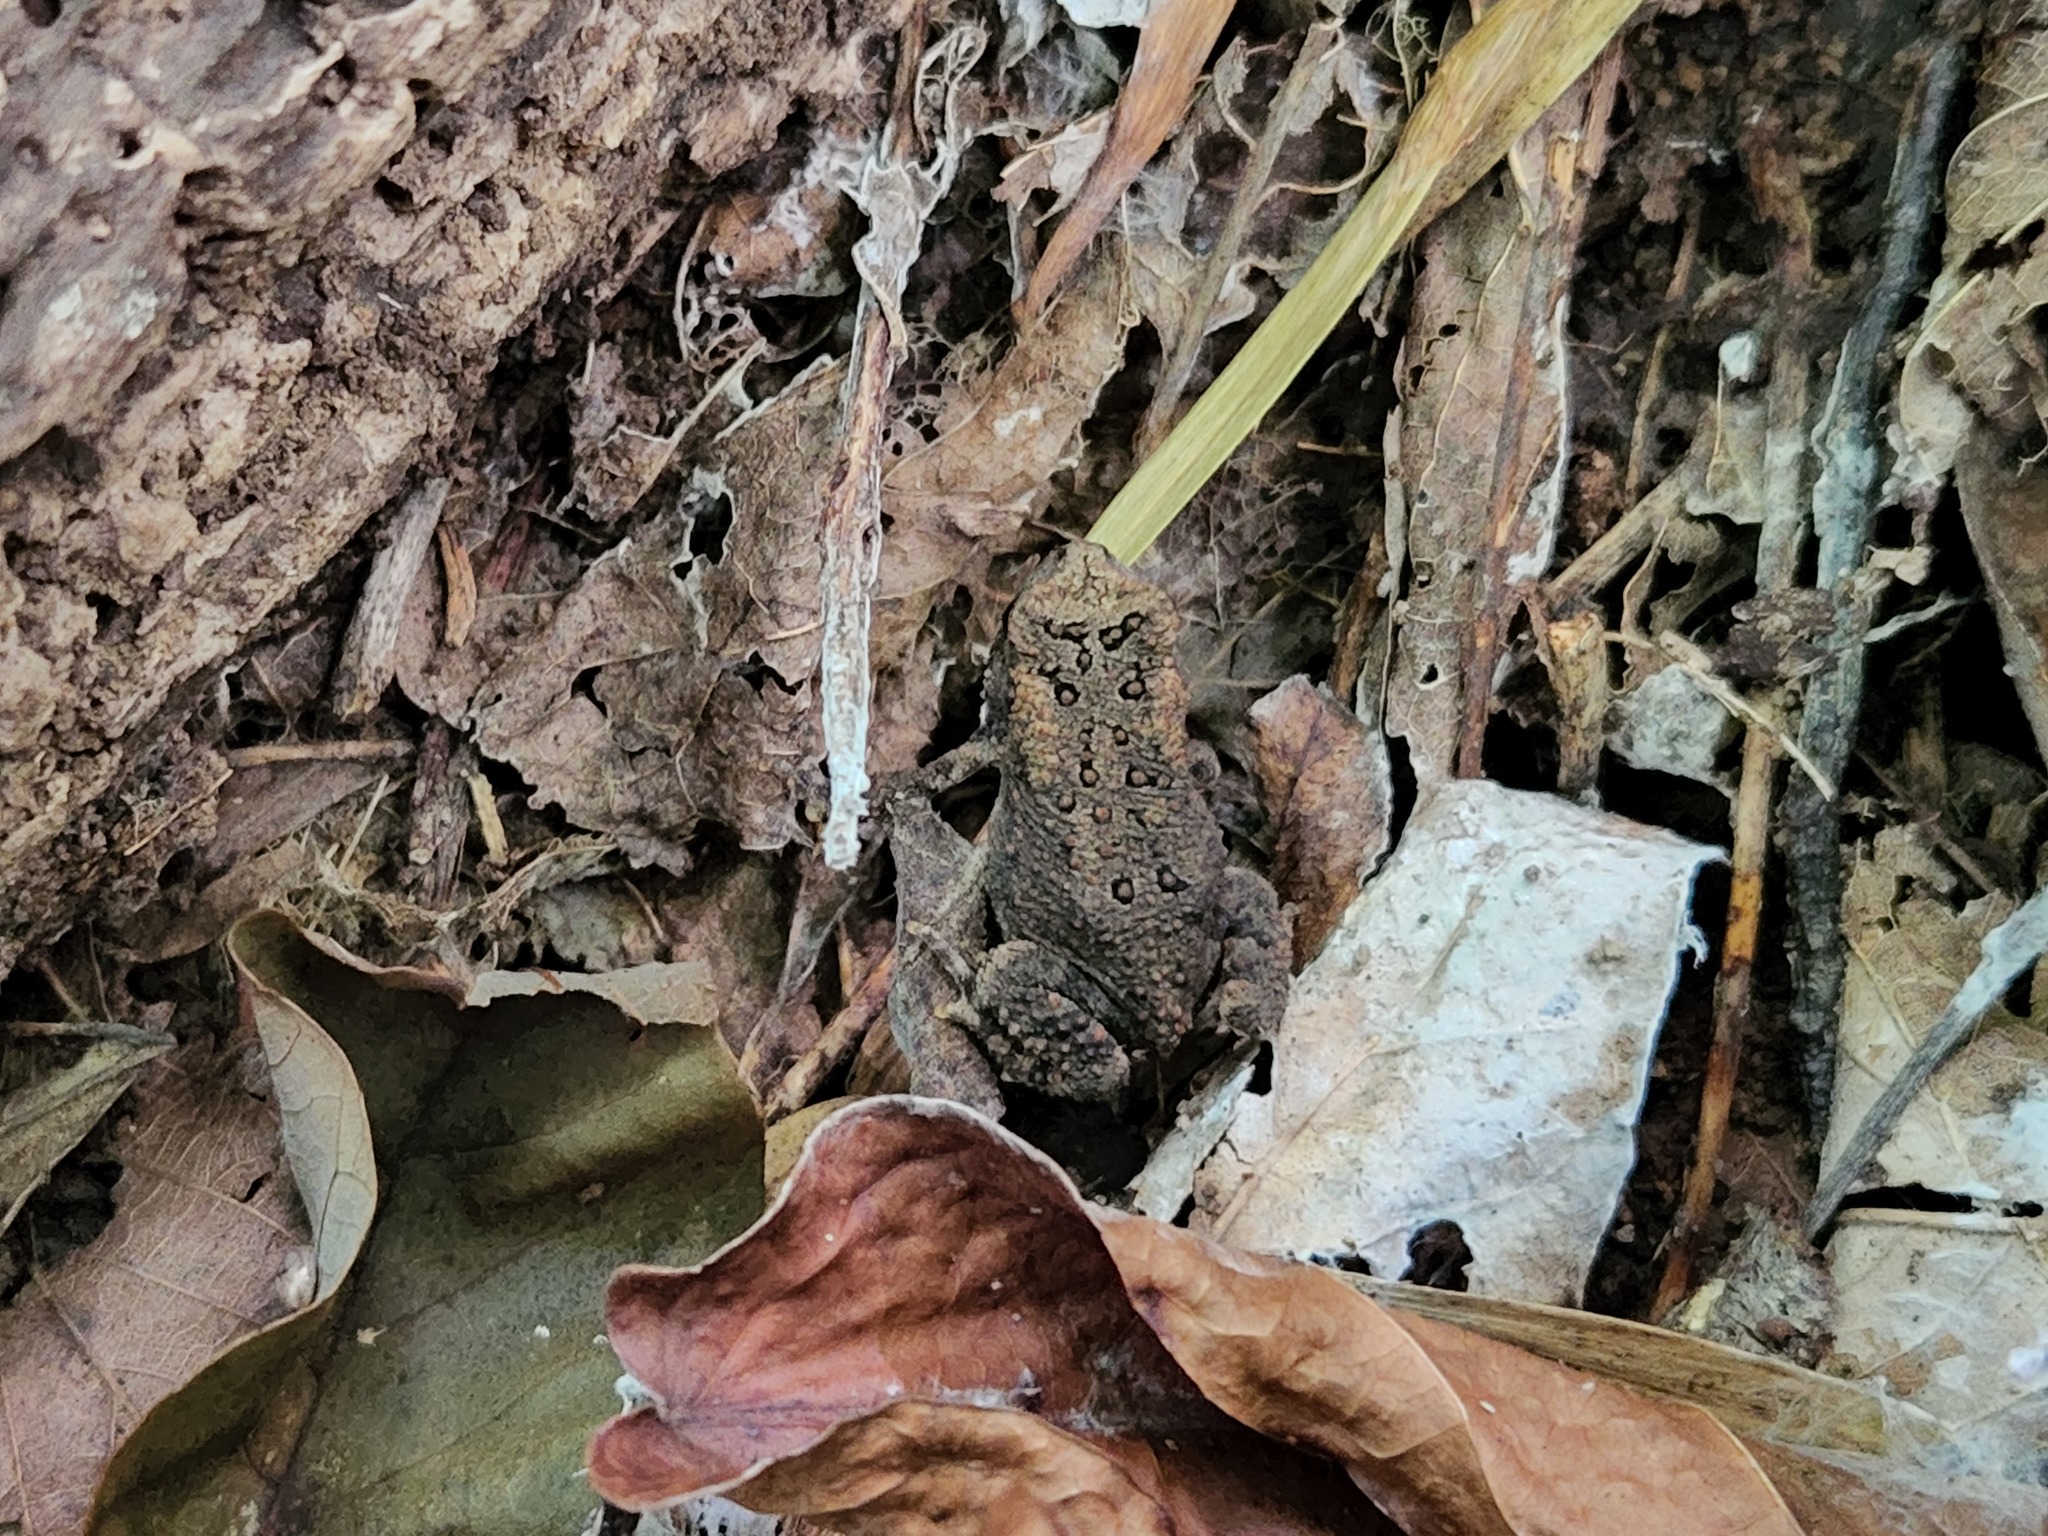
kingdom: Animalia
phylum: Chordata
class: Amphibia
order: Anura
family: Bufonidae
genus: Anaxyrus
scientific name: Anaxyrus americanus
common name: American toad
